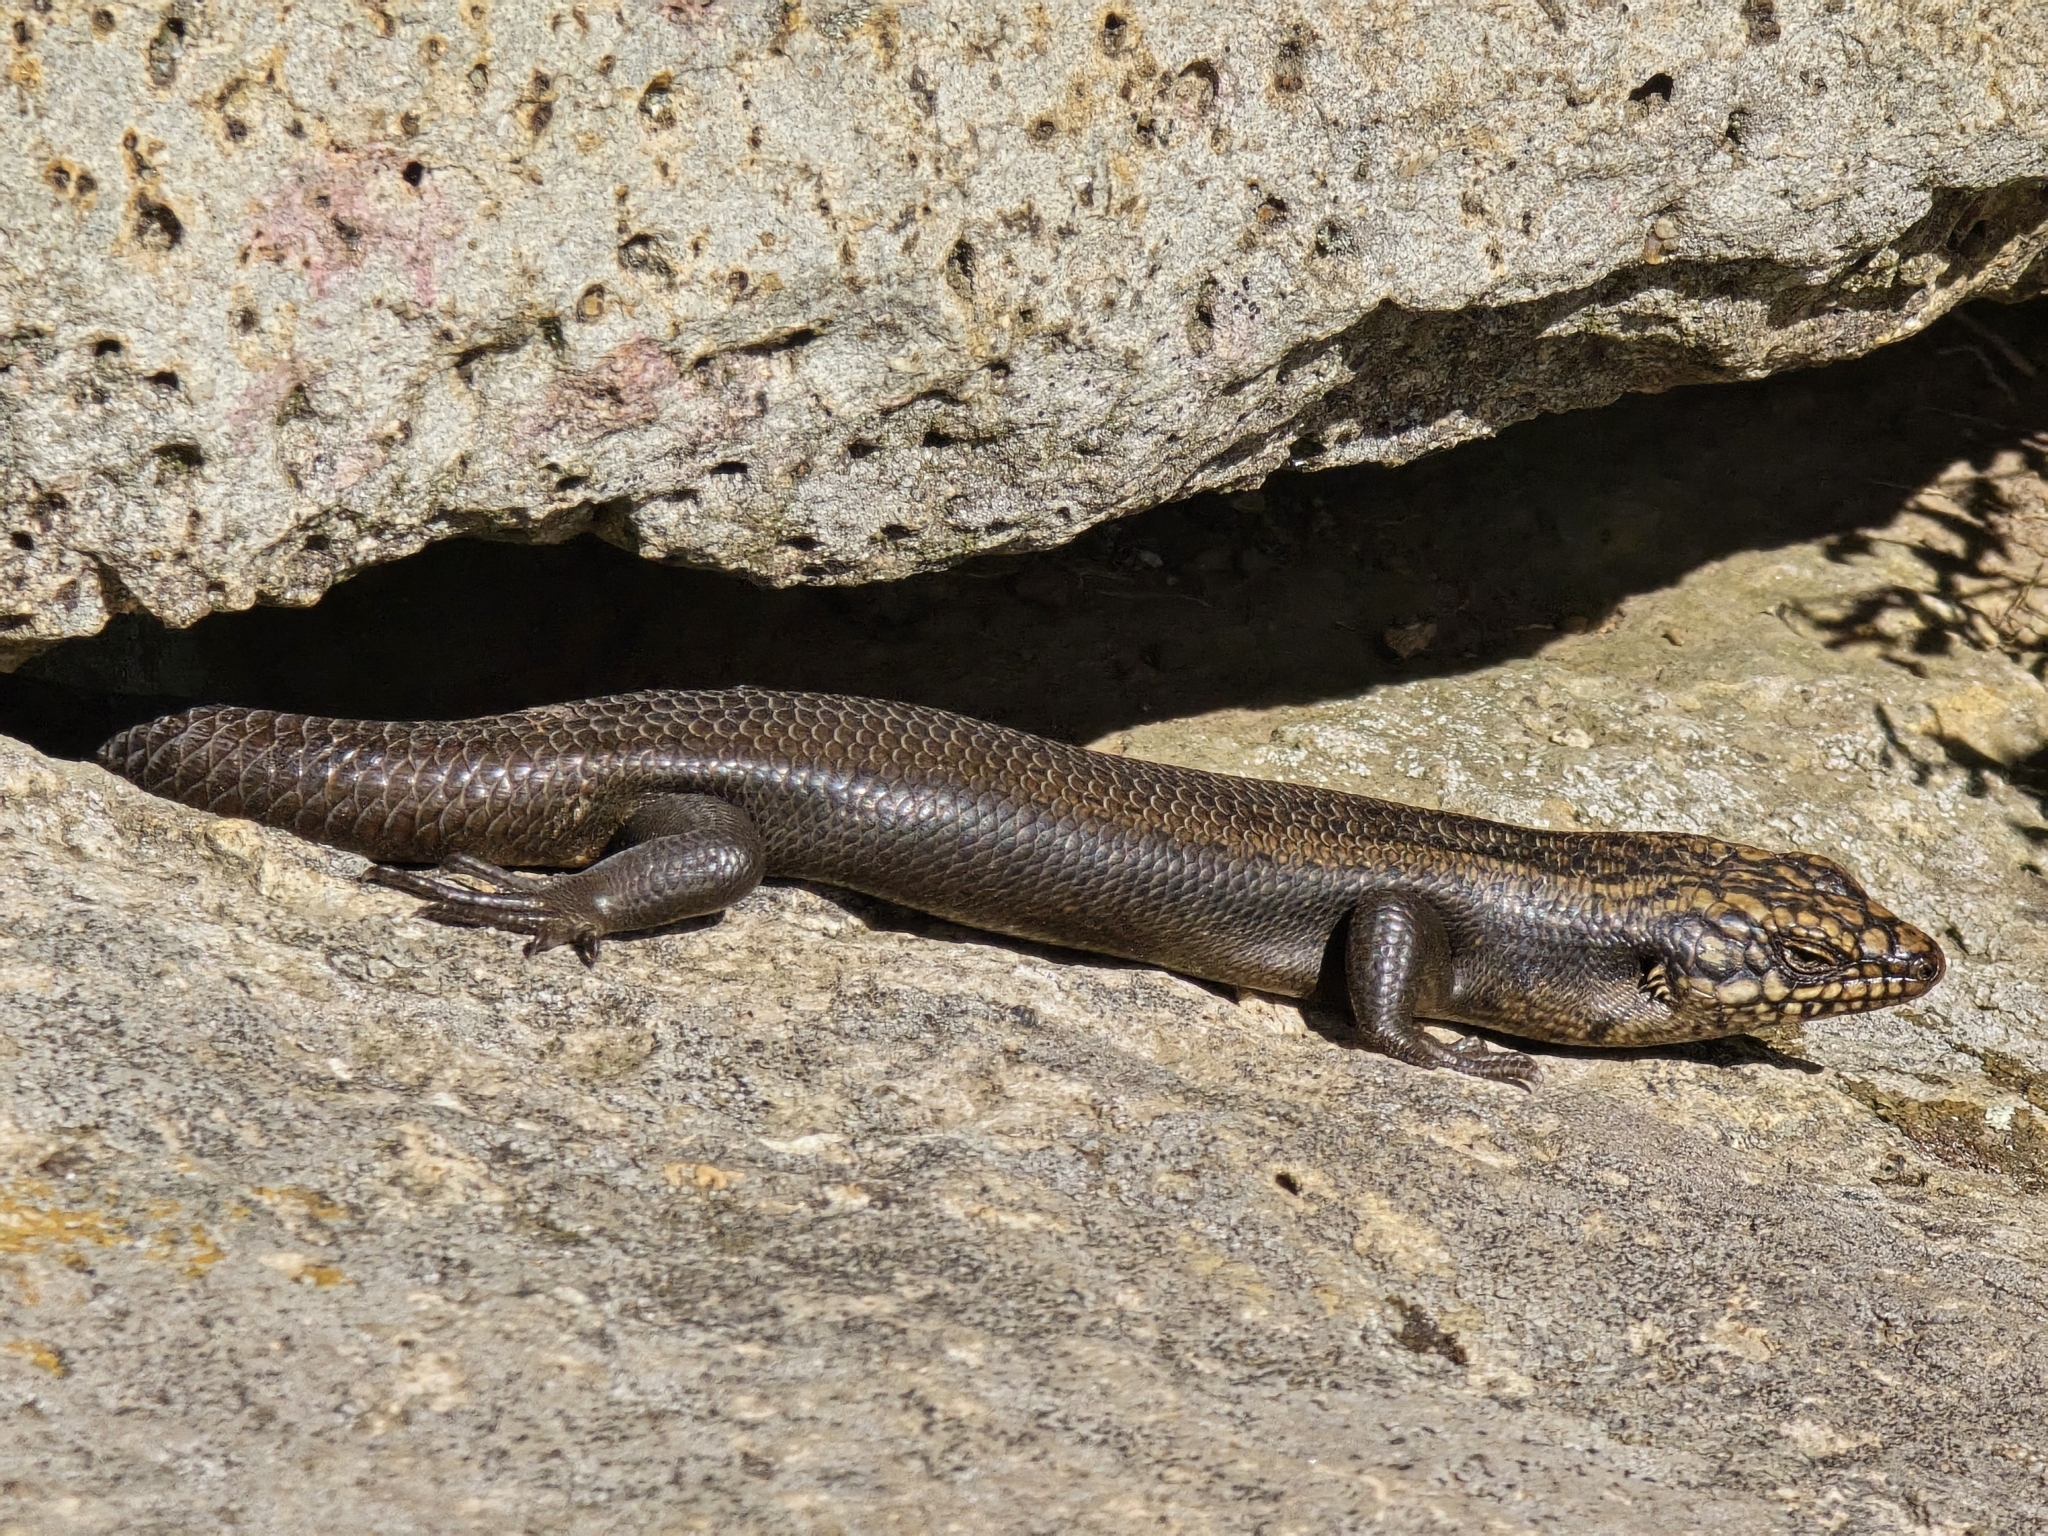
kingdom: Animalia
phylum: Chordata
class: Squamata
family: Scincidae
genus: Egernia
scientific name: Egernia roomi
